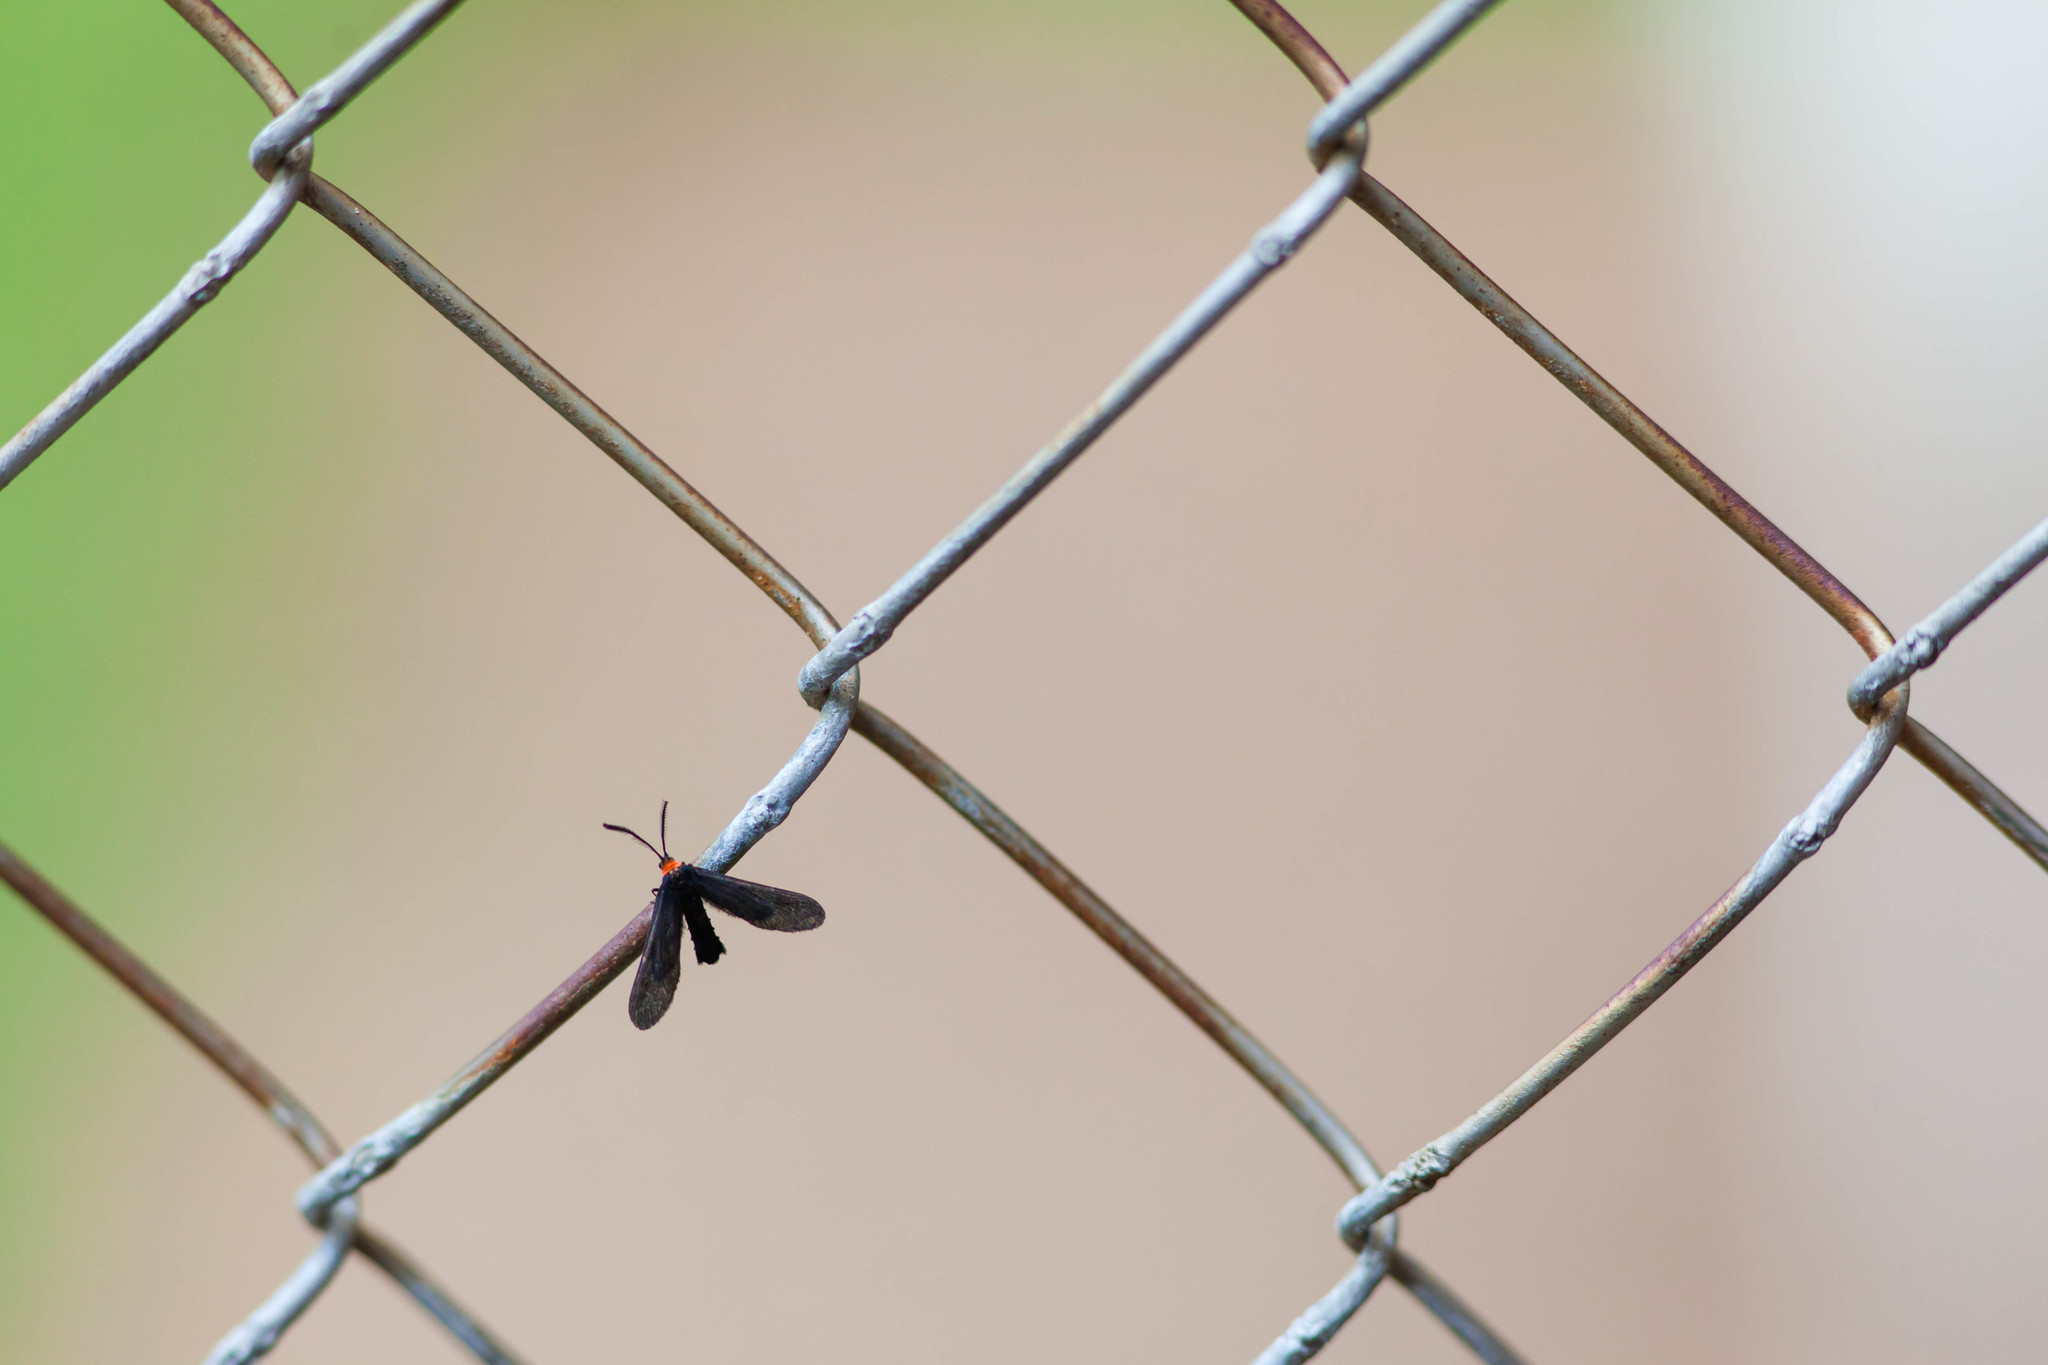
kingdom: Animalia
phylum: Arthropoda
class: Insecta
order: Lepidoptera
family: Zygaenidae
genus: Harrisina
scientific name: Harrisina americana
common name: Grapeleaf skeletonizer moth
